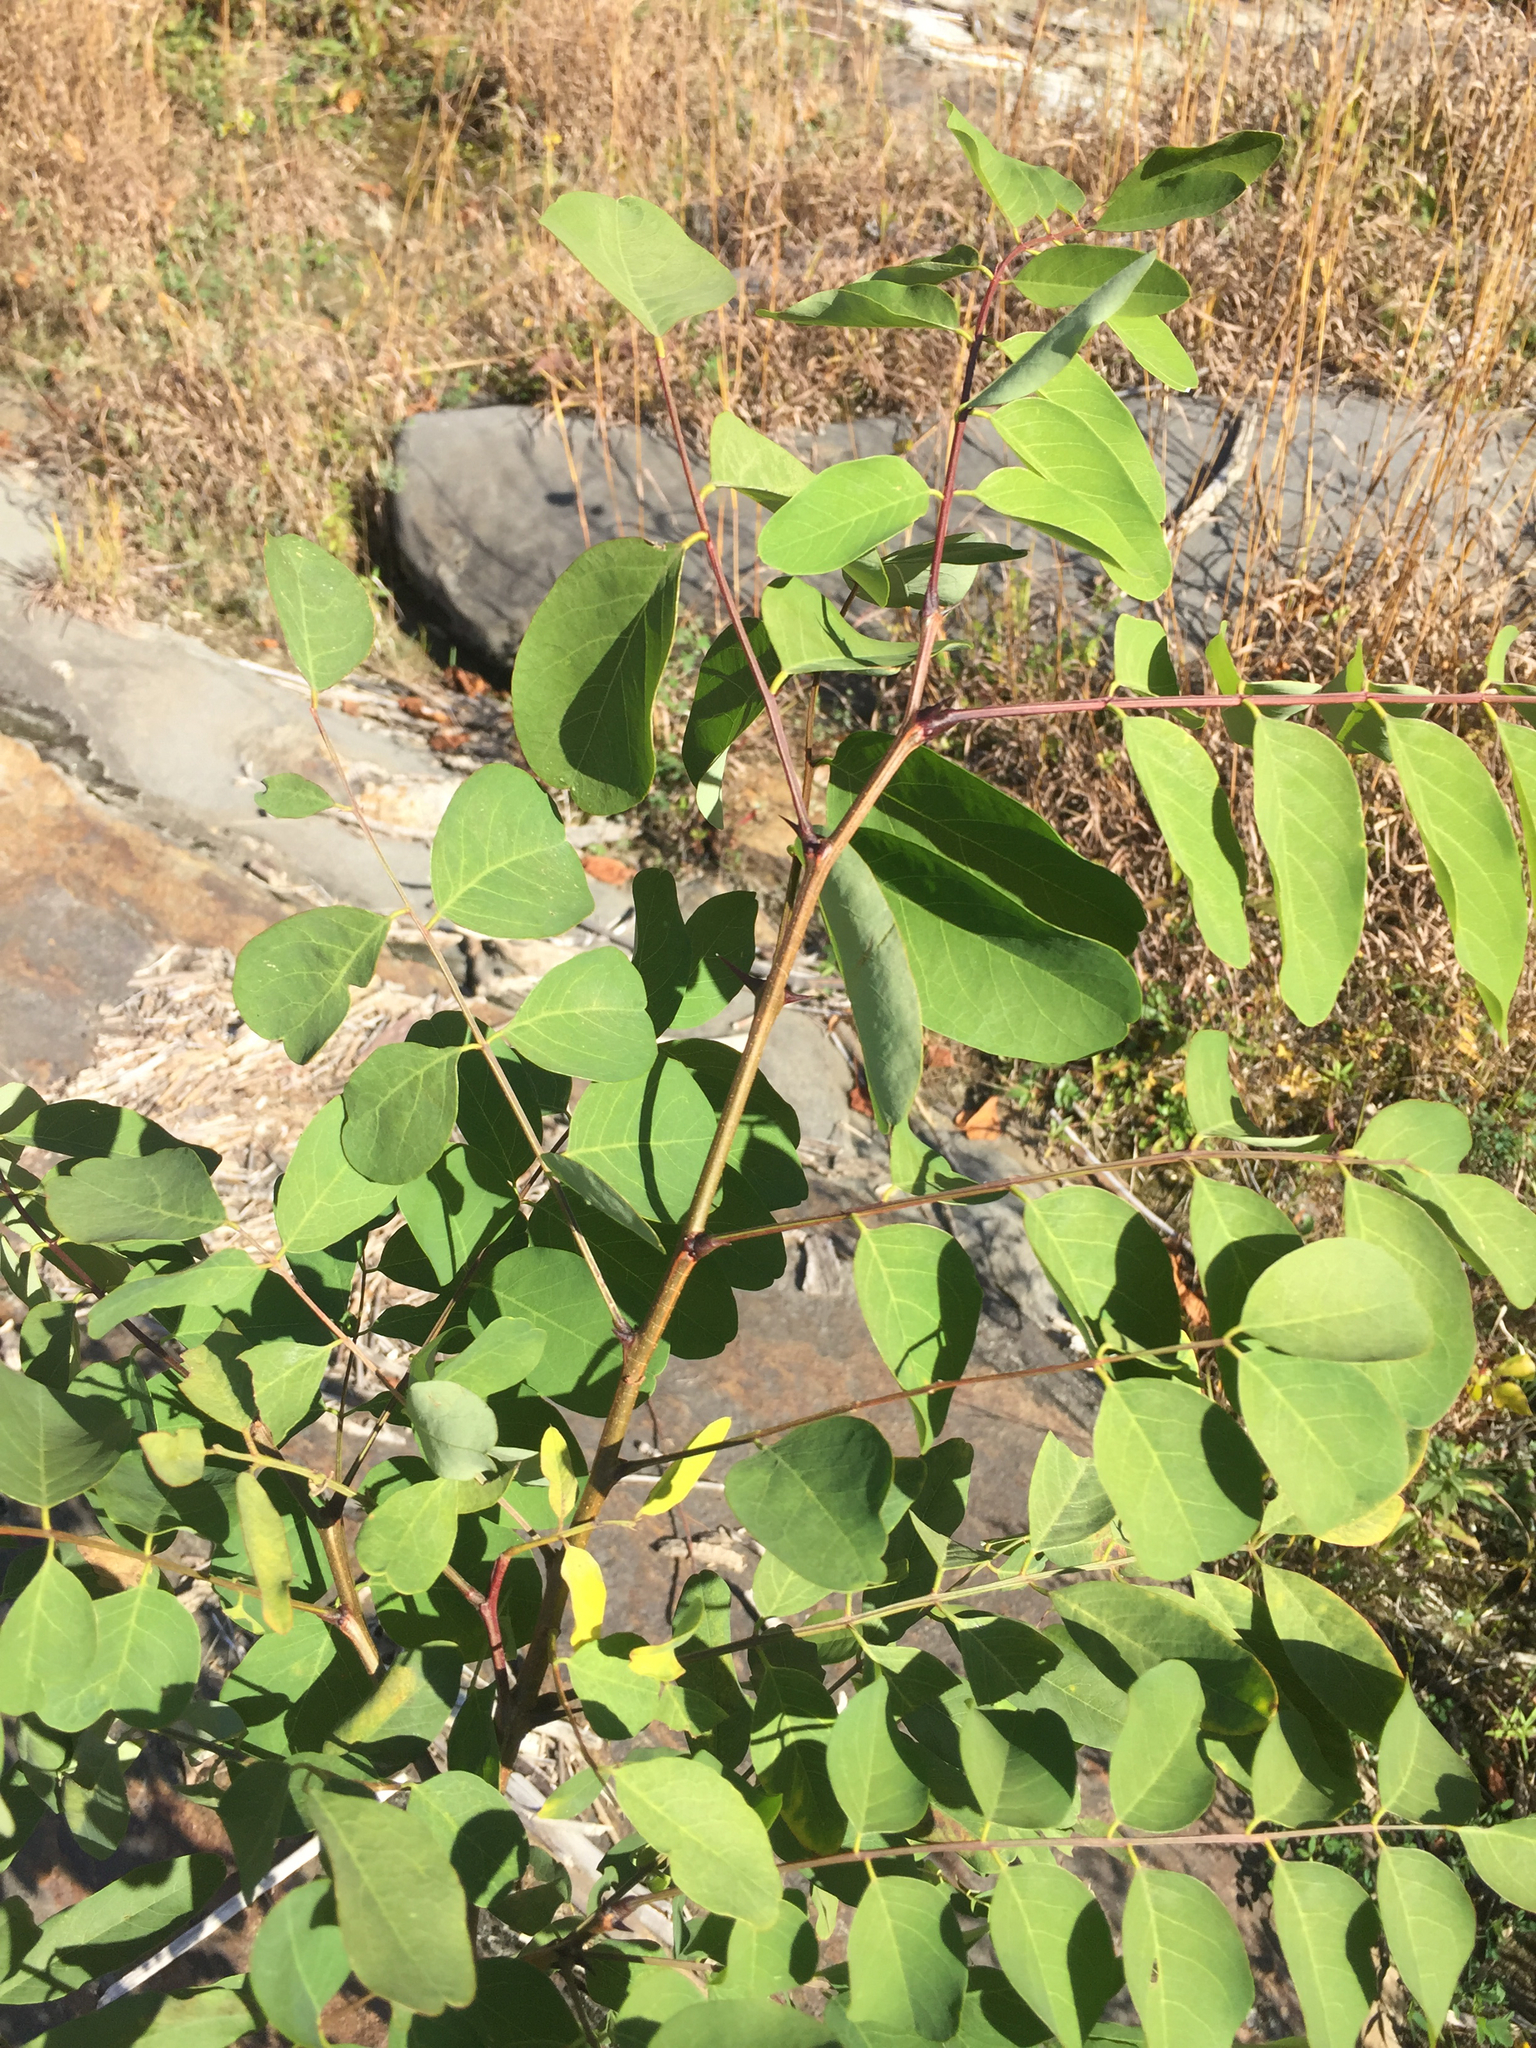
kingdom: Plantae
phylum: Tracheophyta
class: Magnoliopsida
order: Fabales
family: Fabaceae
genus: Robinia
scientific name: Robinia pseudoacacia
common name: Black locust
